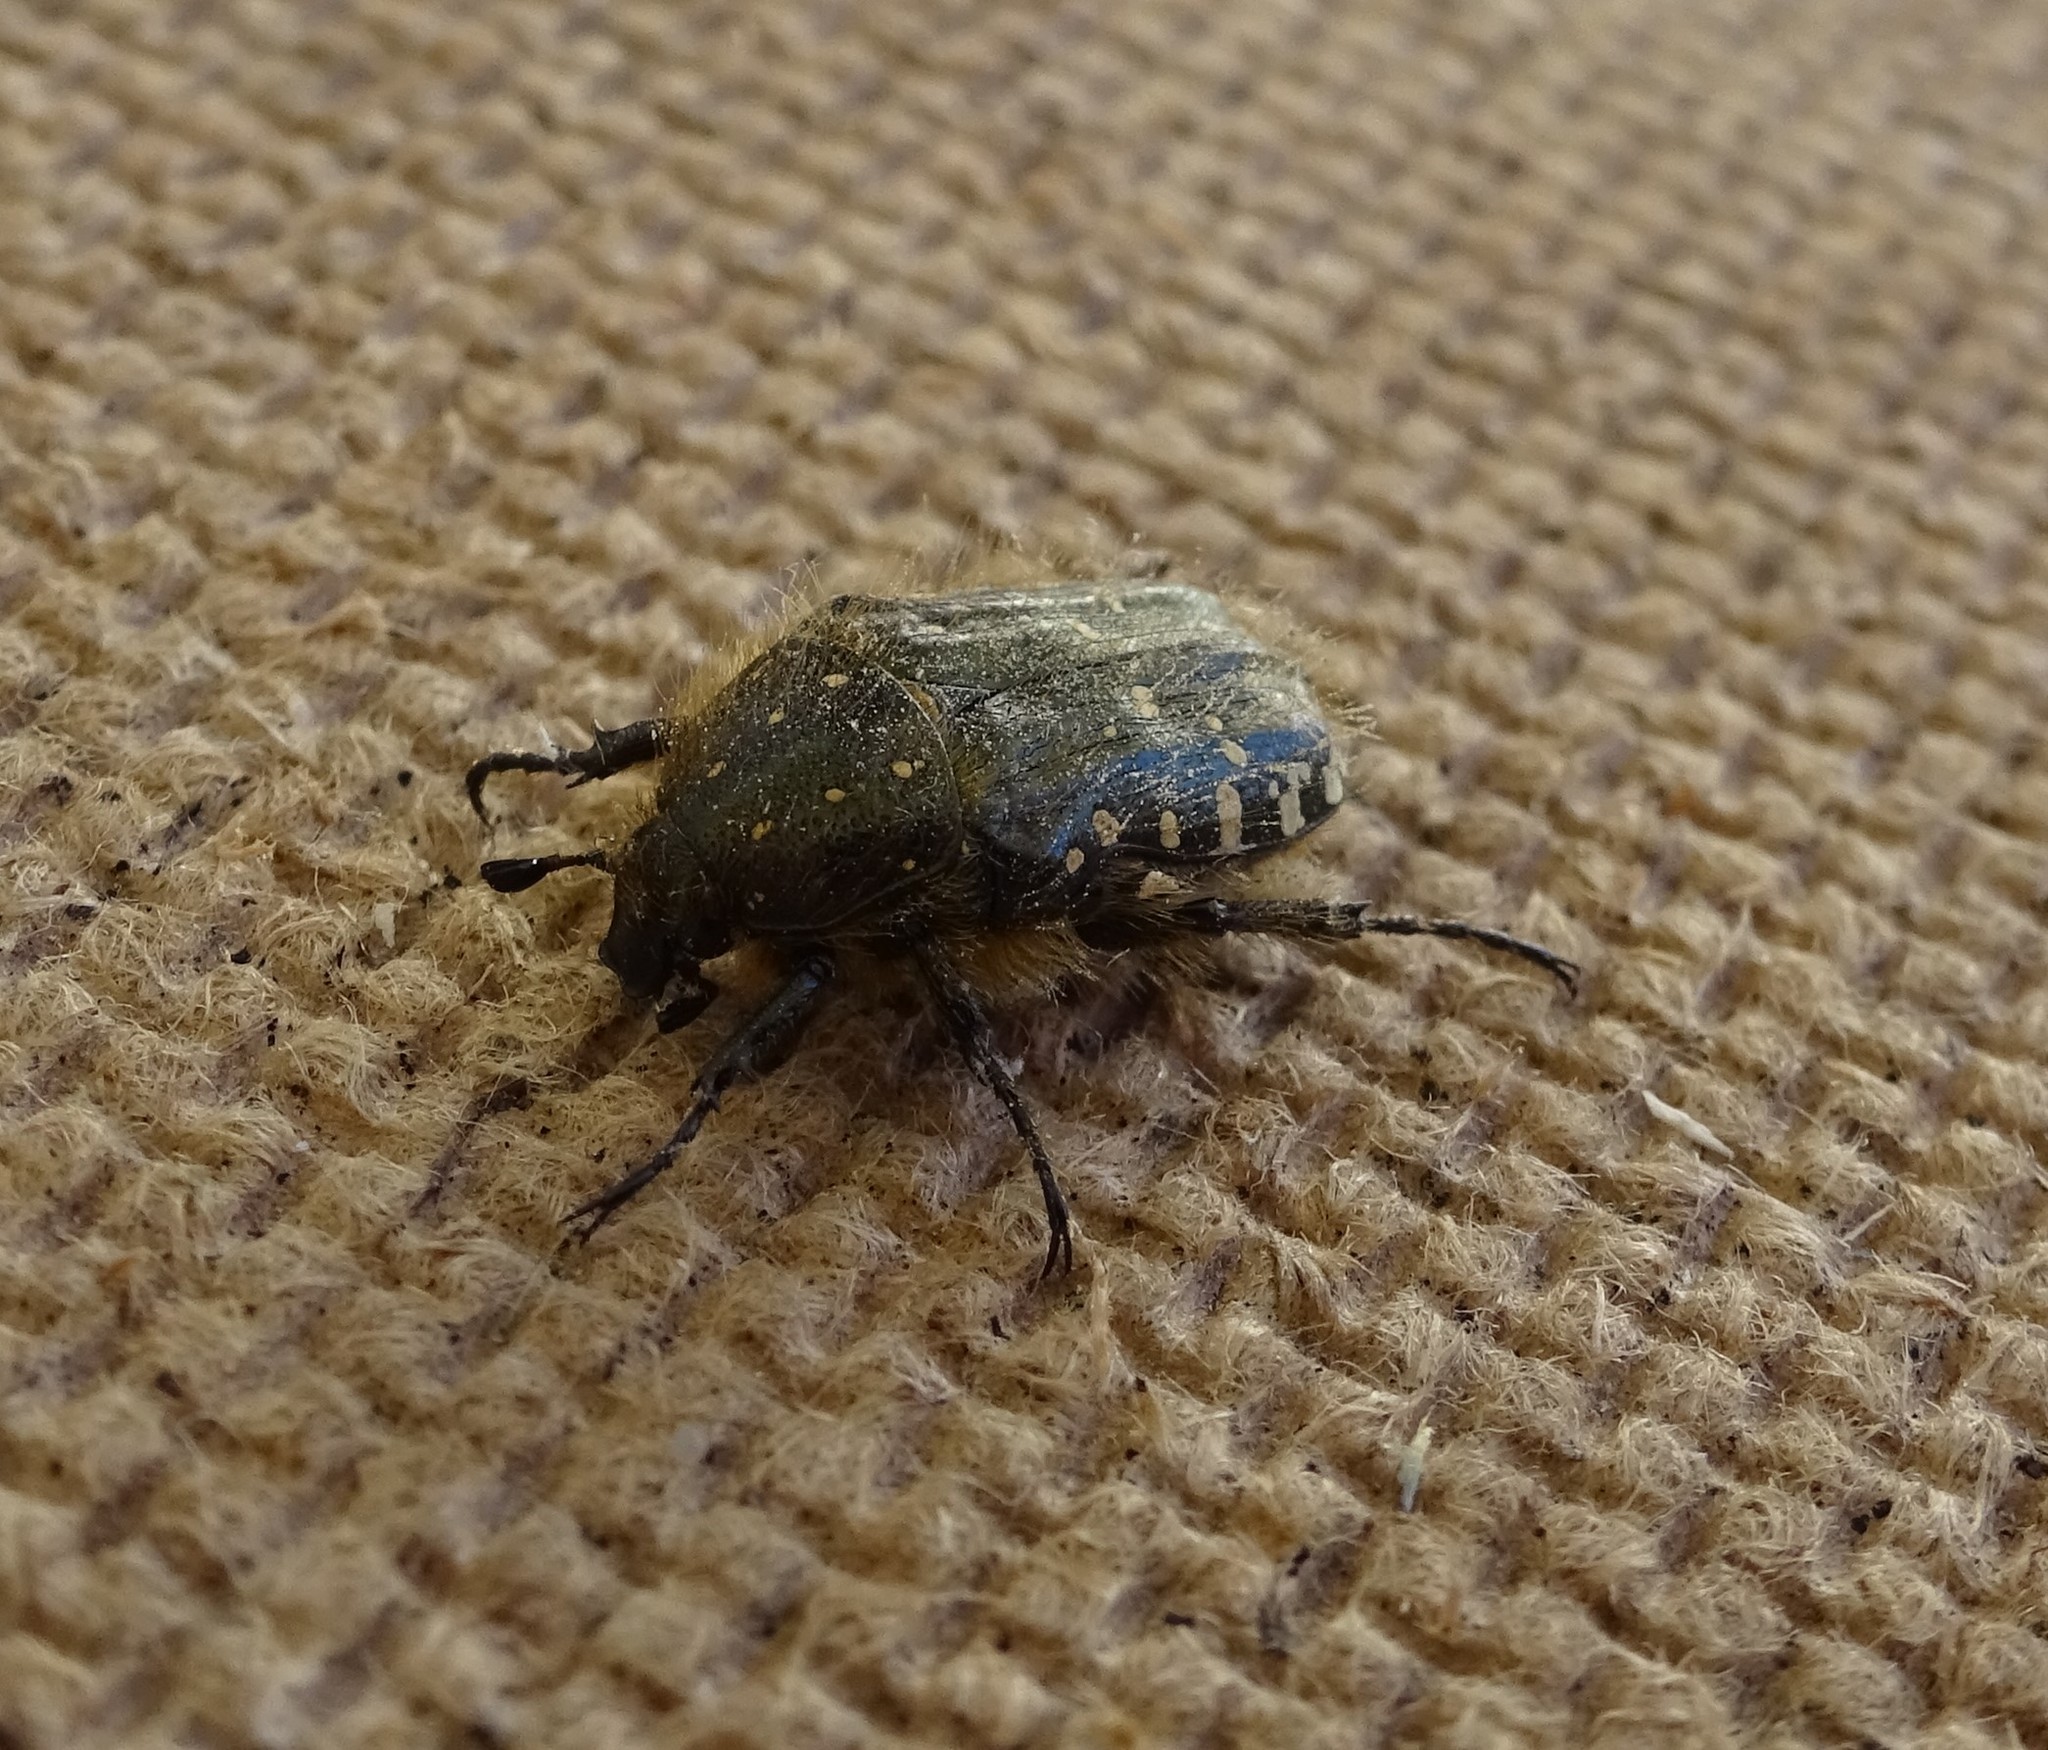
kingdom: Animalia
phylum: Arthropoda
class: Insecta
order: Coleoptera
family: Scarabaeidae
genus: Oxythyrea
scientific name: Oxythyrea funesta
